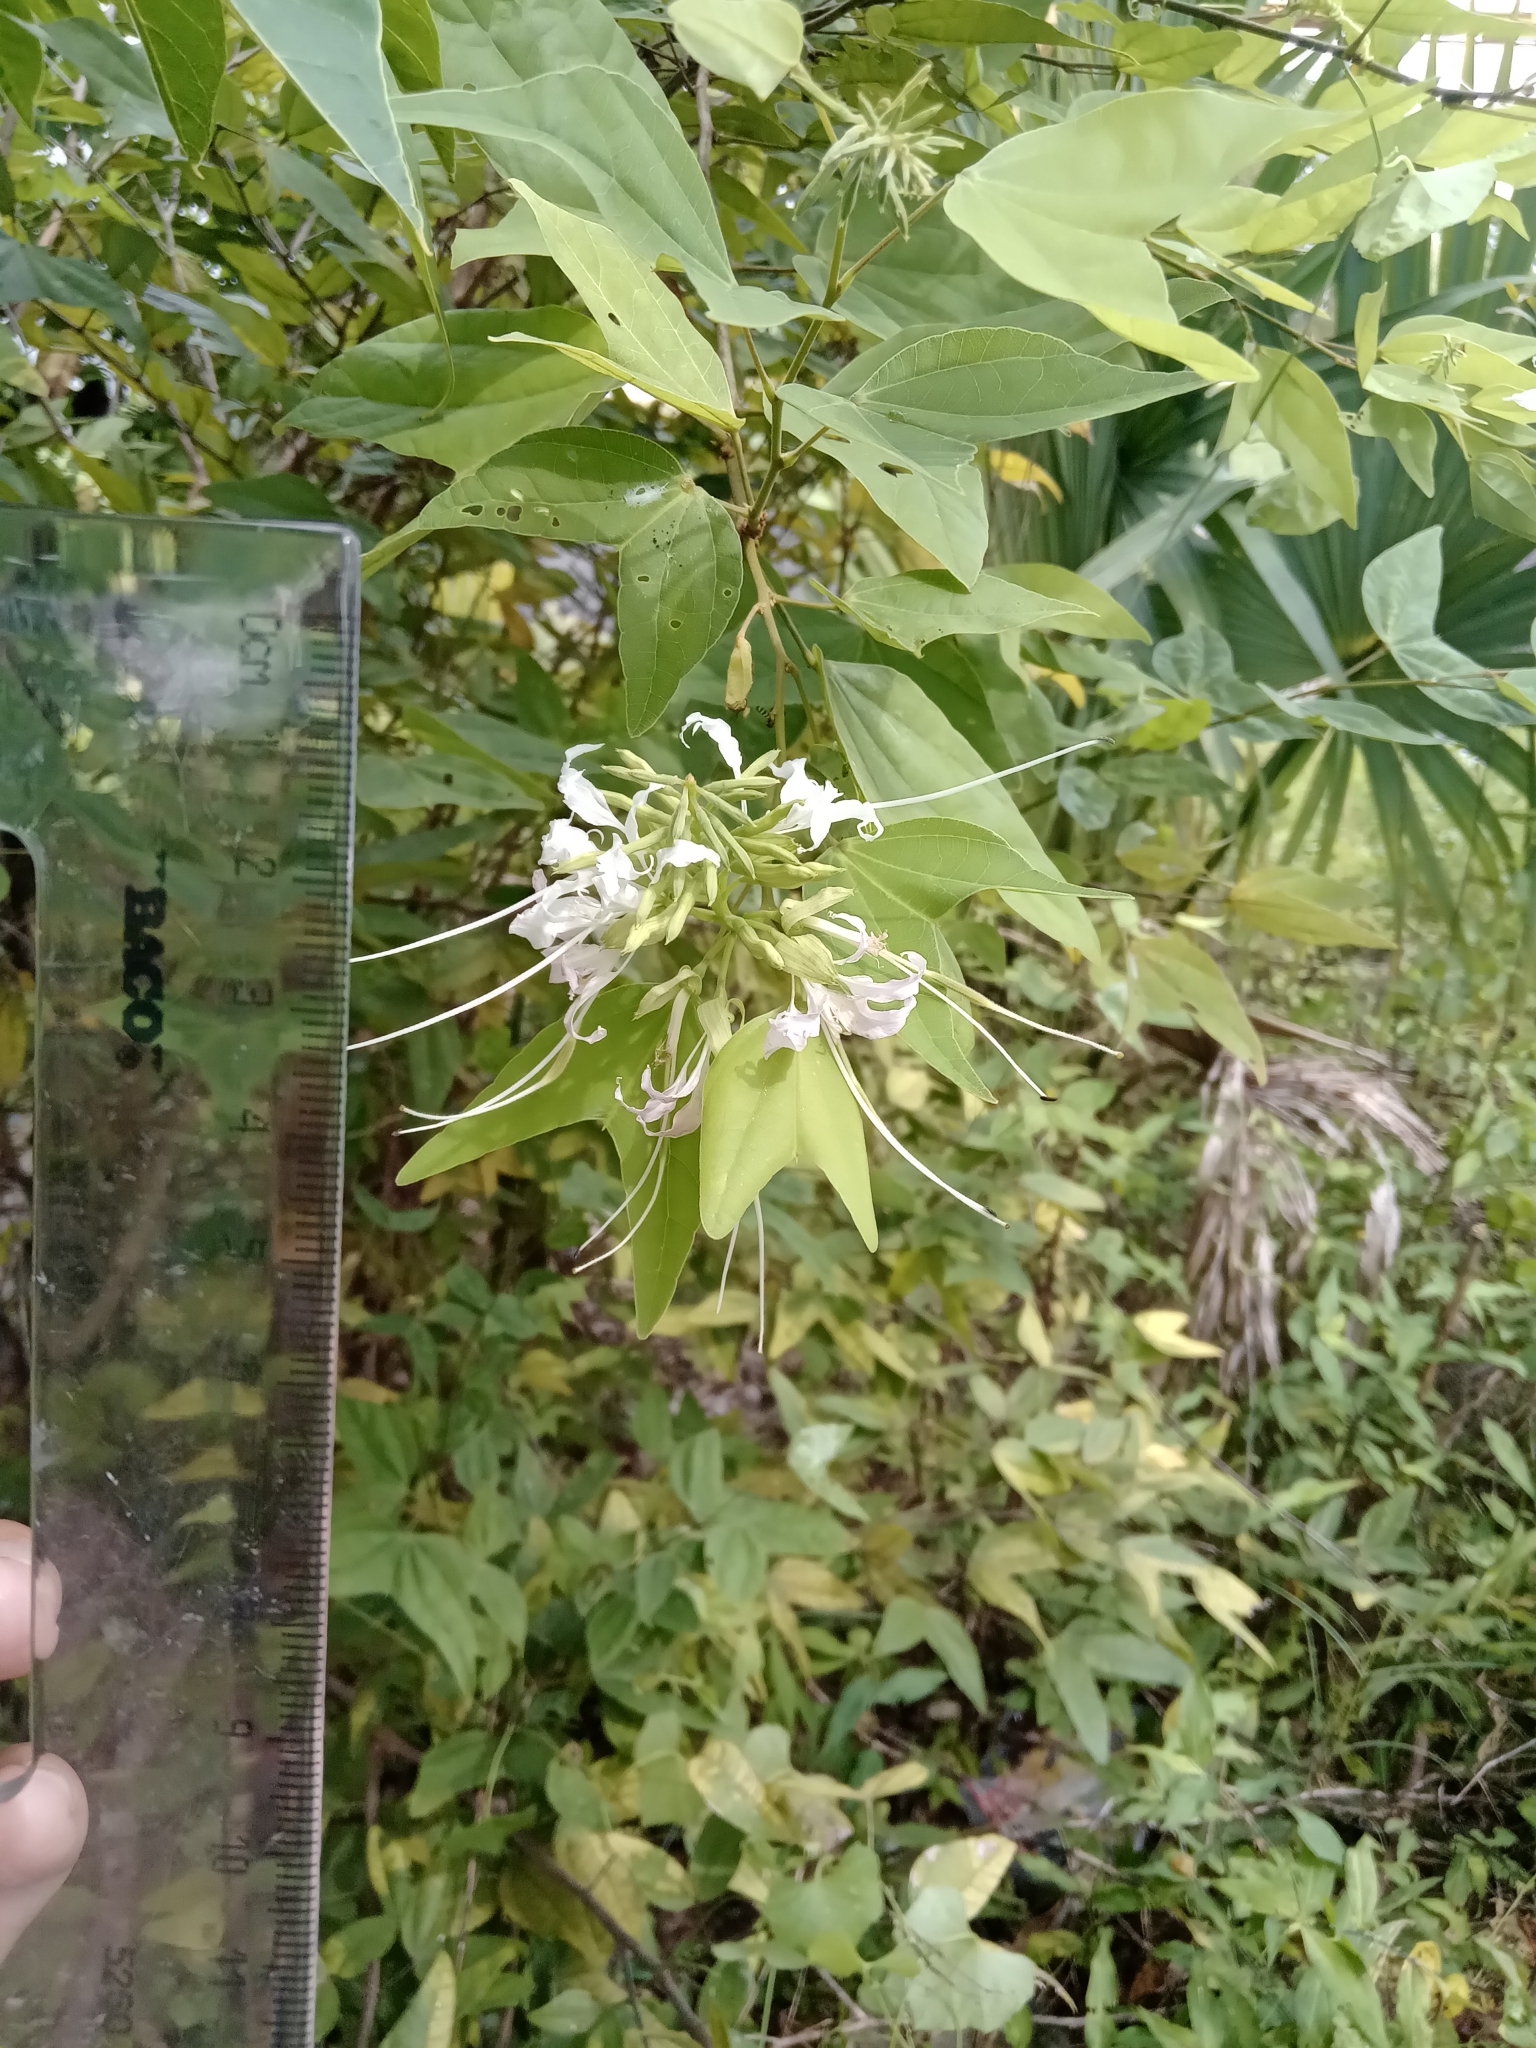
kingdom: Plantae
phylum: Tracheophyta
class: Magnoliopsida
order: Fabales
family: Fabaceae
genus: Bauhinia
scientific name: Bauhinia divaricata
